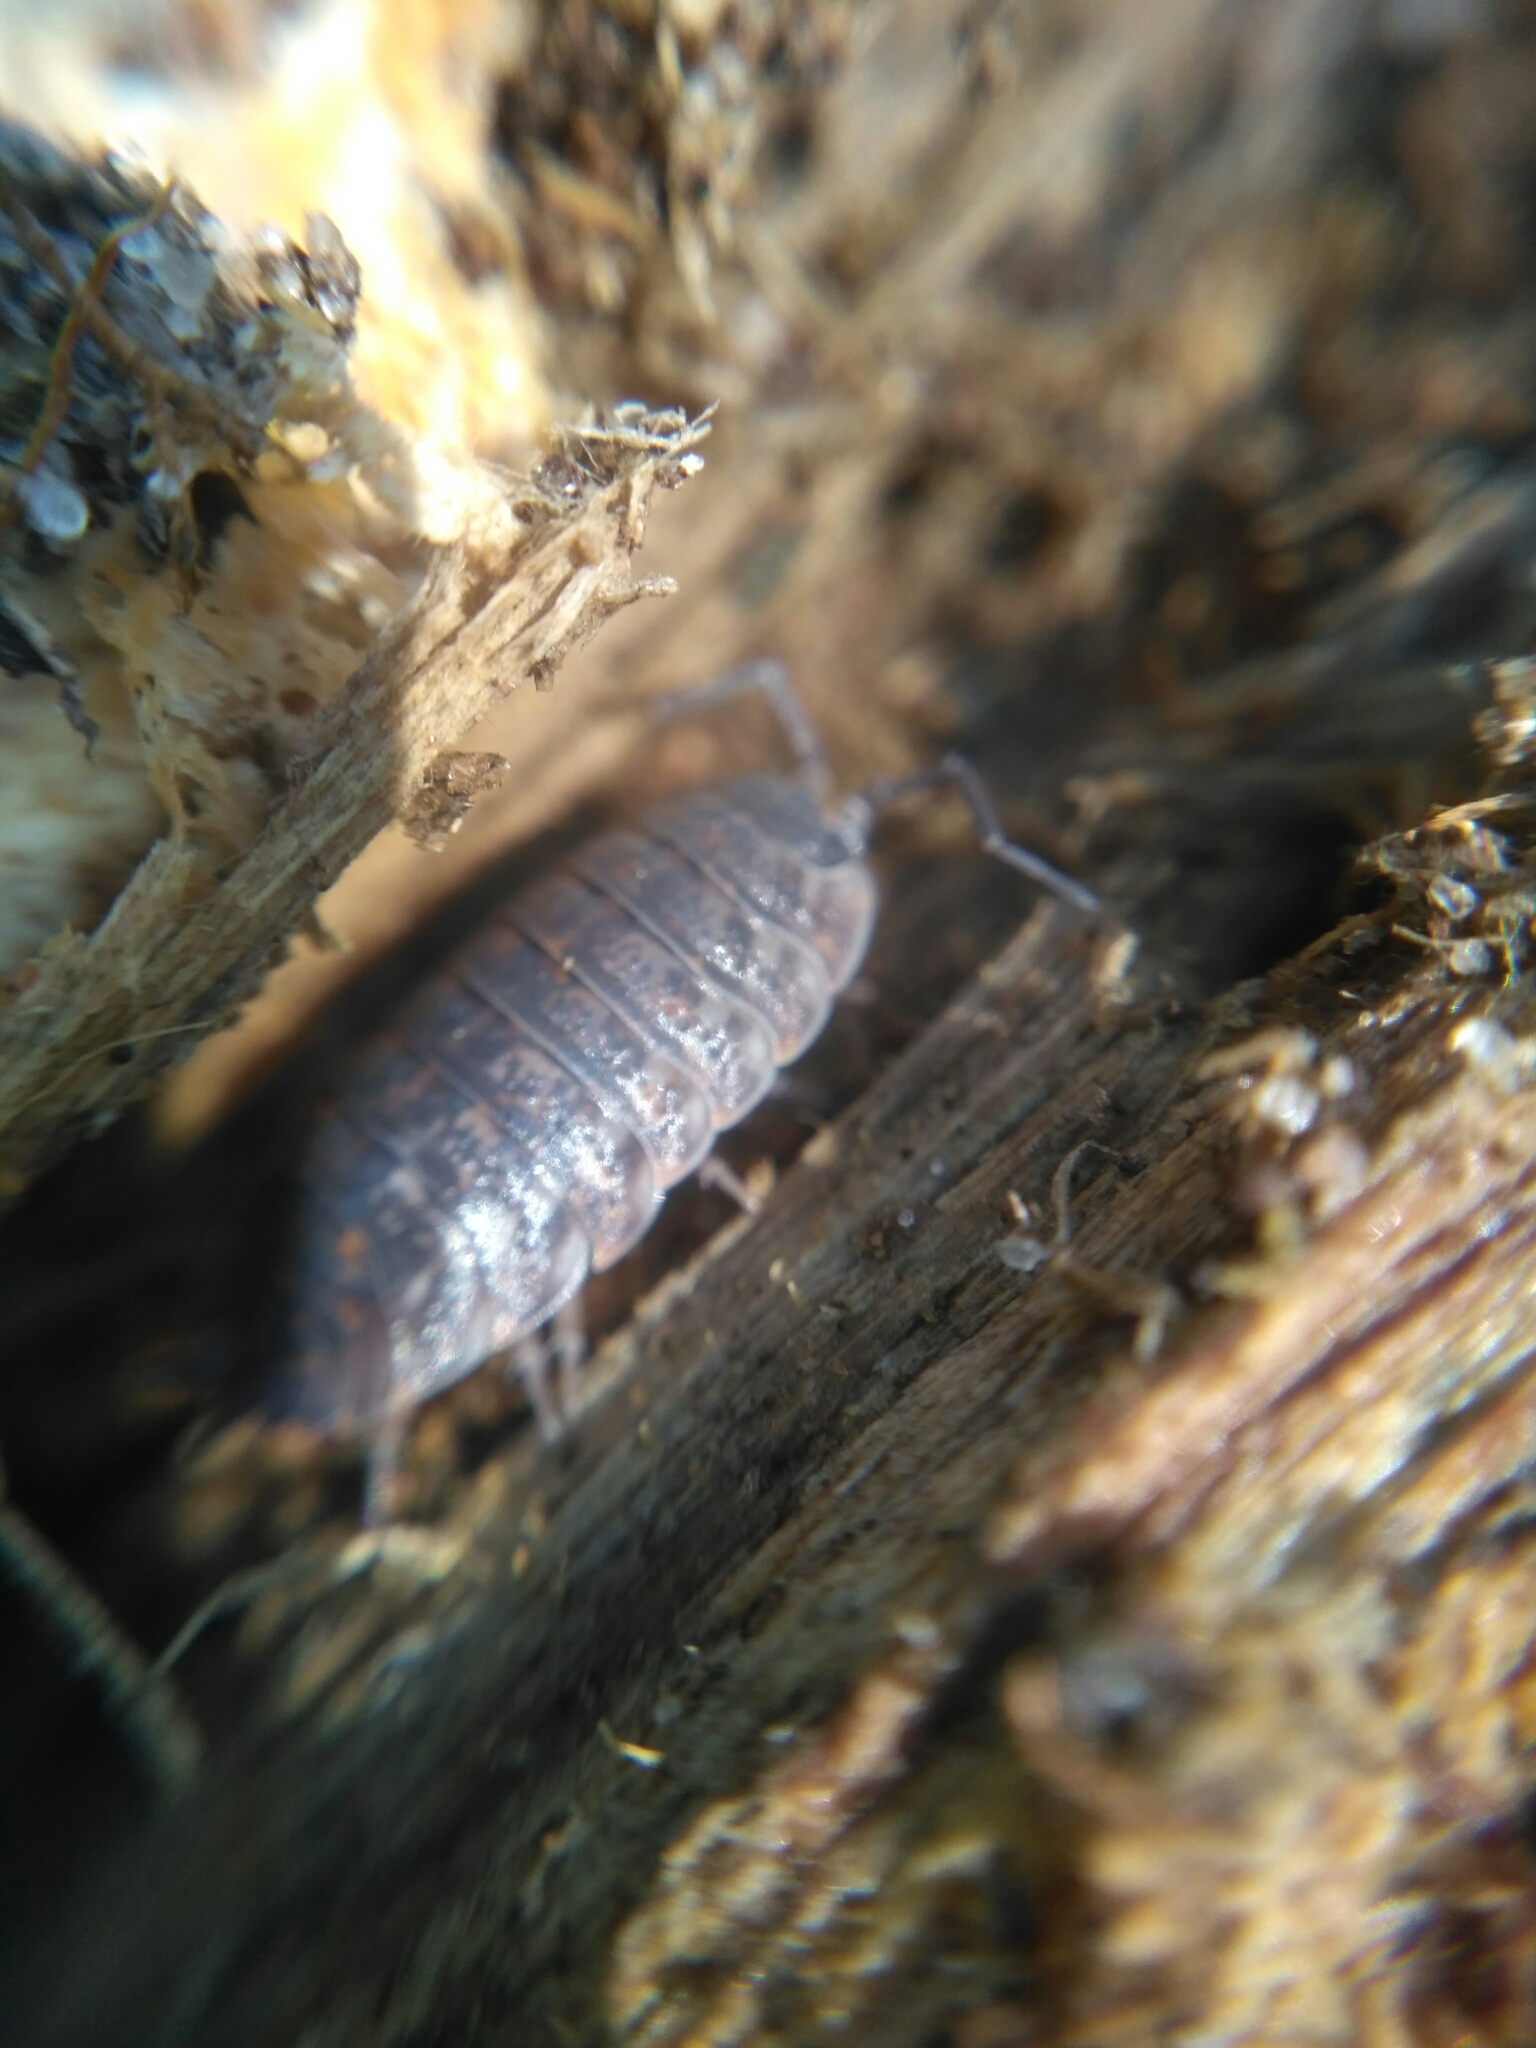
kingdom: Animalia
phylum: Arthropoda
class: Malacostraca
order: Isopoda
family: Trachelipodidae
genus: Trachelipus
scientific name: Trachelipus rathkii
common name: Isopod
